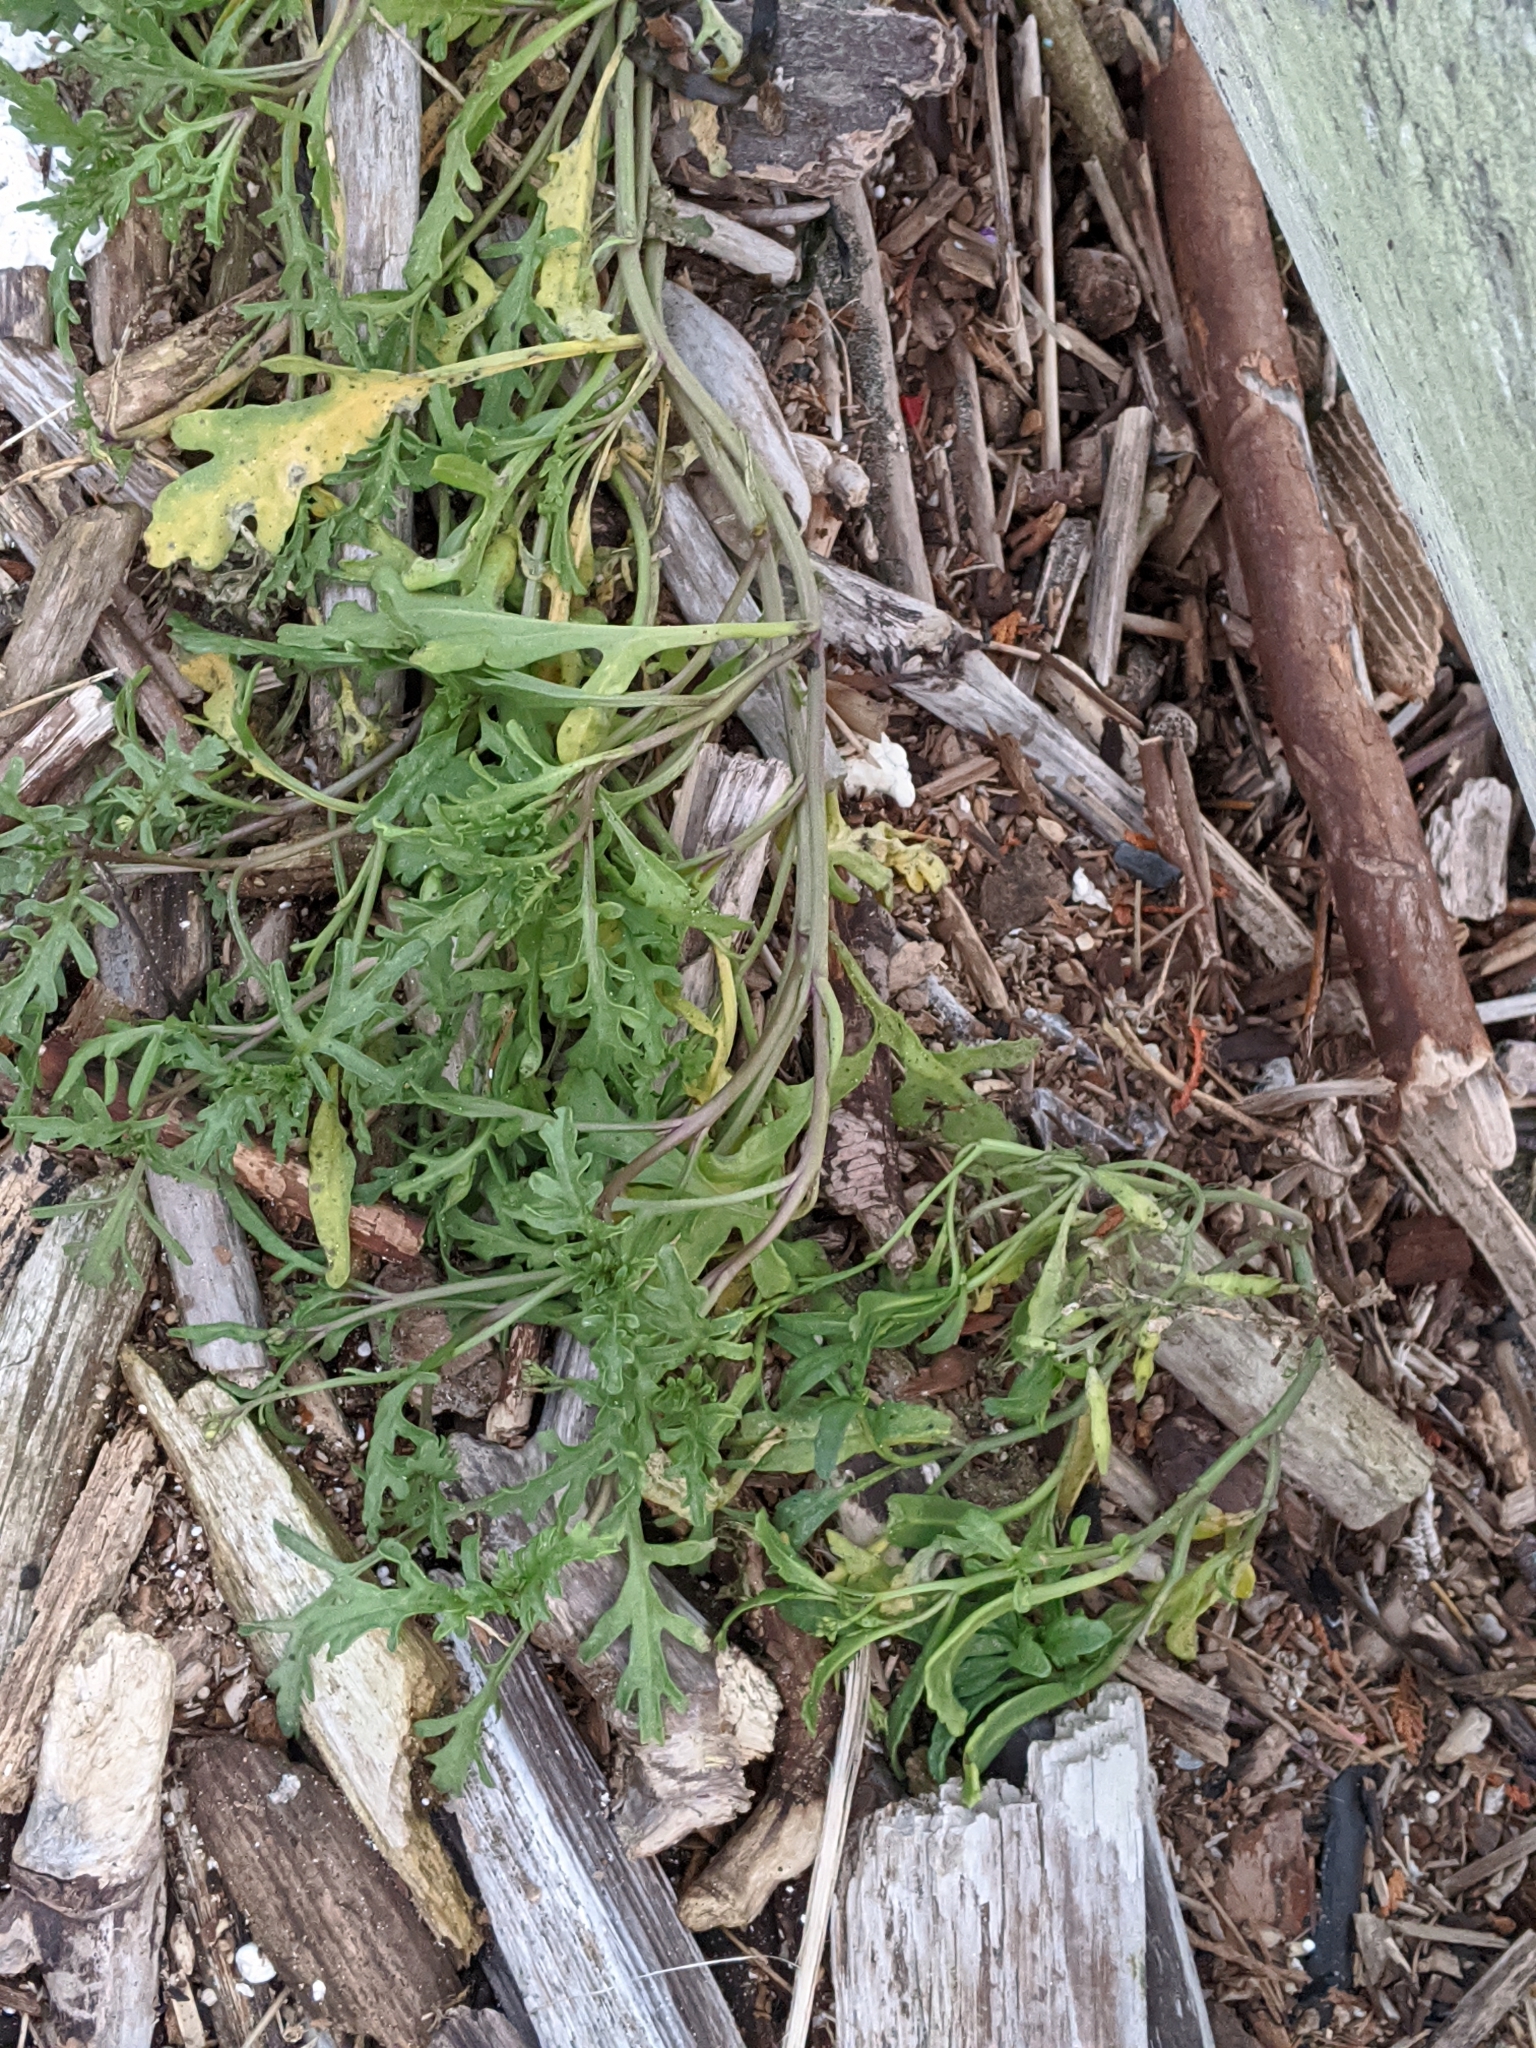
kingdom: Plantae
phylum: Tracheophyta
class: Magnoliopsida
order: Brassicales
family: Brassicaceae
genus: Cakile
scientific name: Cakile maritima
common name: Sea rocket
